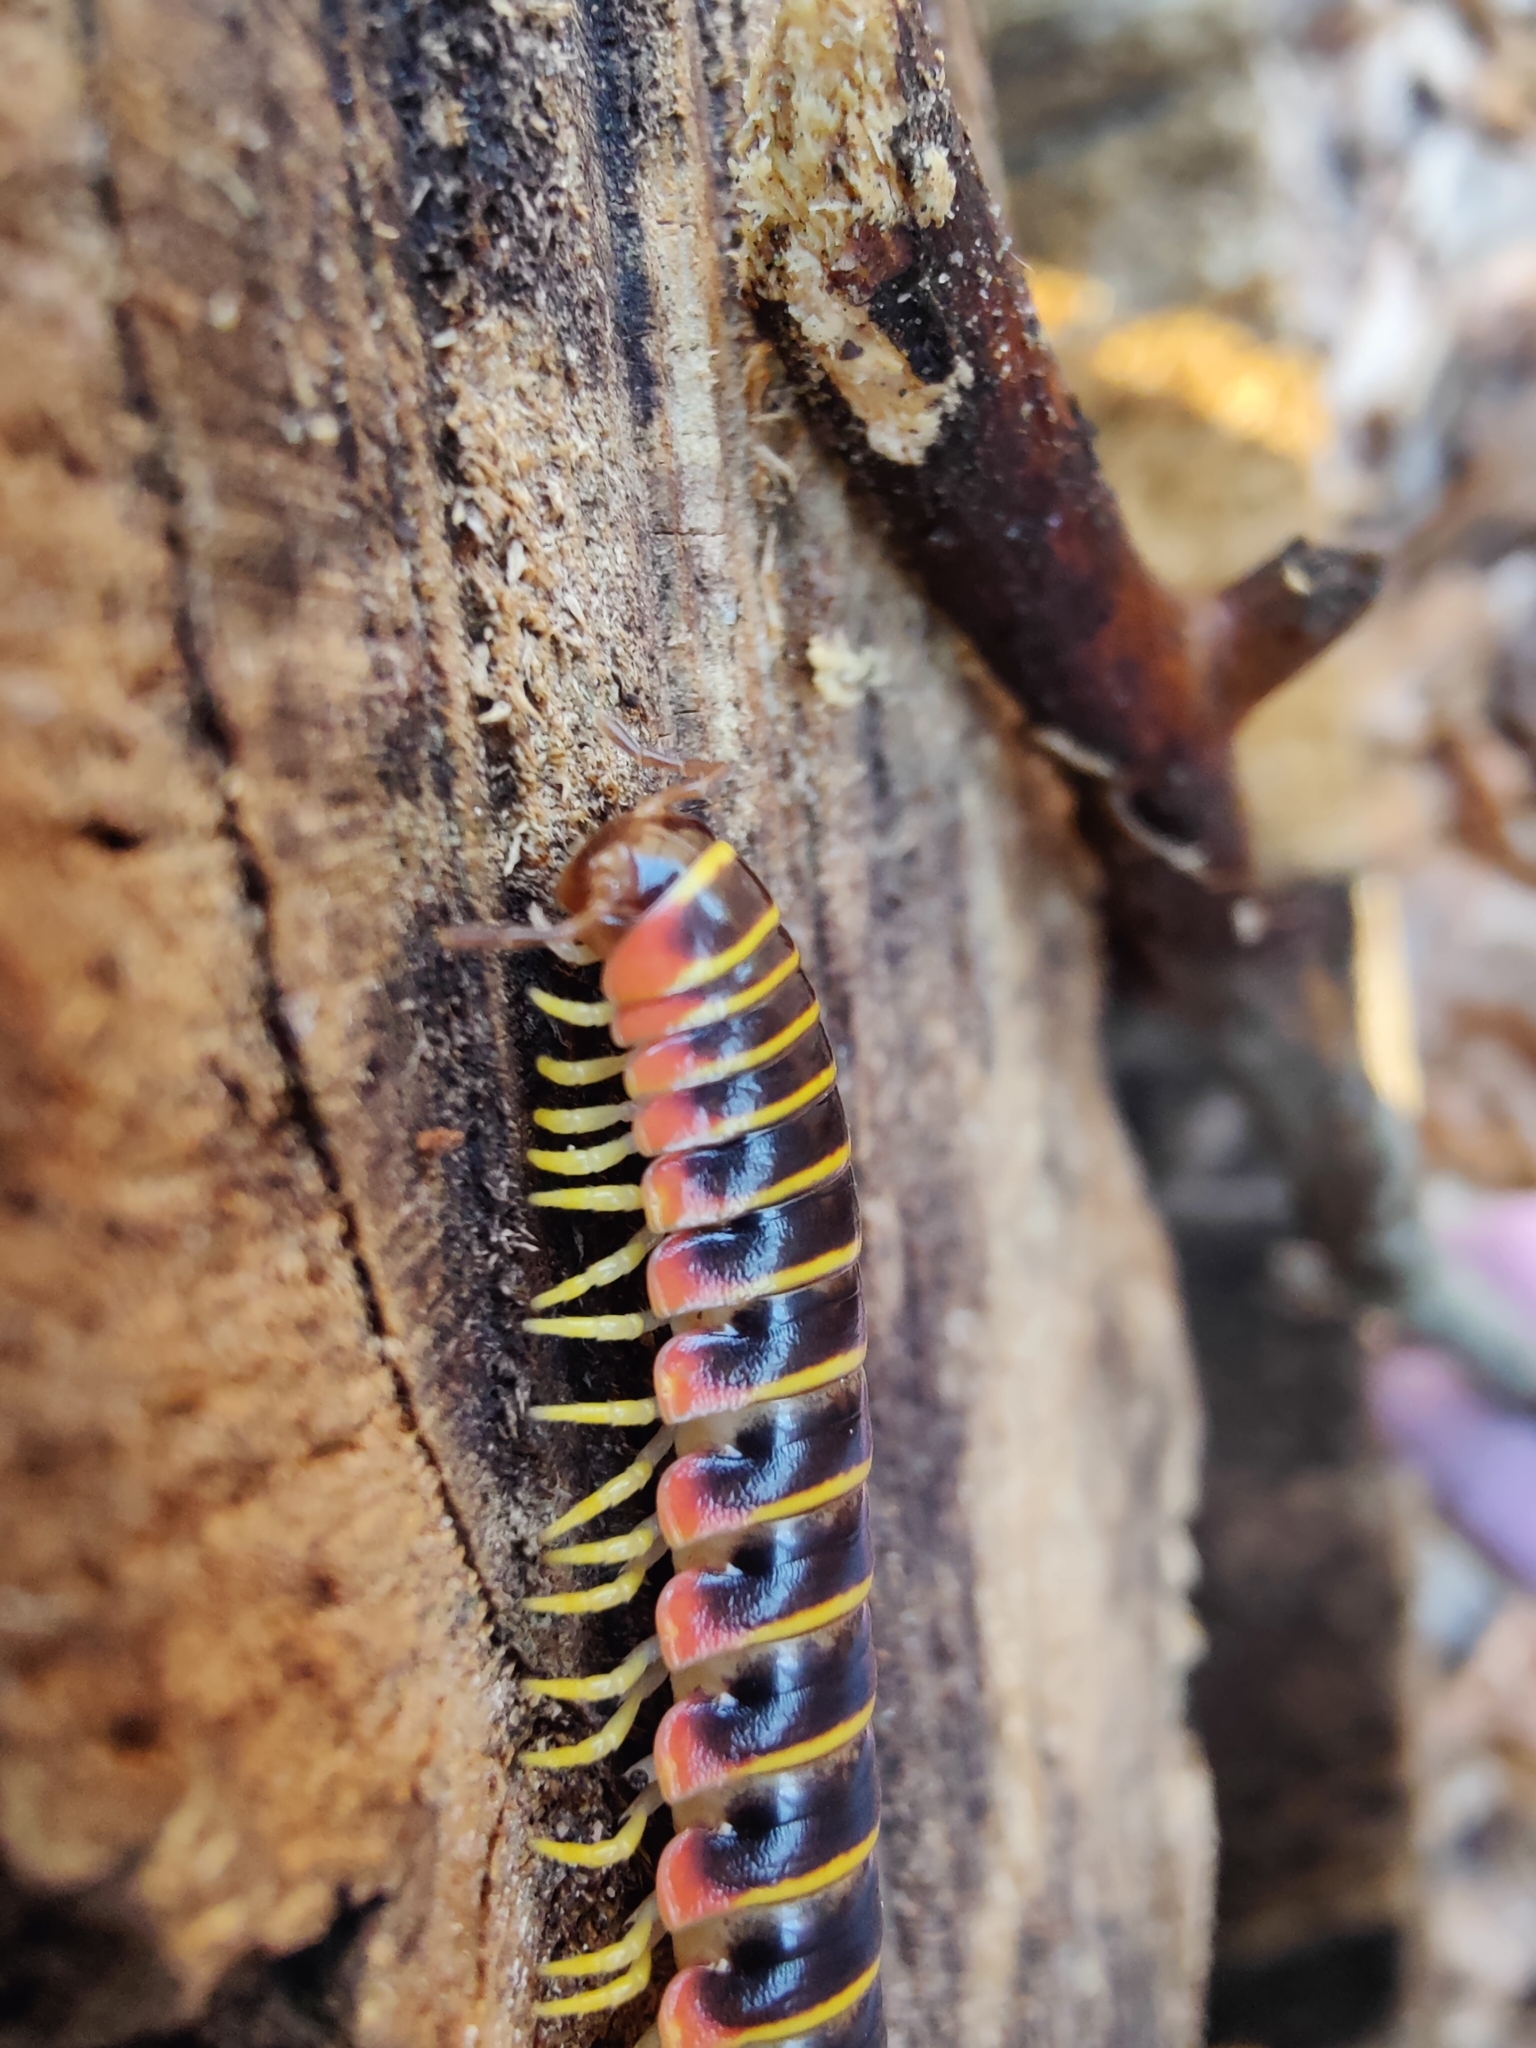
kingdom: Animalia
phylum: Arthropoda
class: Diplopoda
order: Polydesmida
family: Xystodesmidae
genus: Apheloria
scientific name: Apheloria virginiensis
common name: Black-and-gold flat millipede
